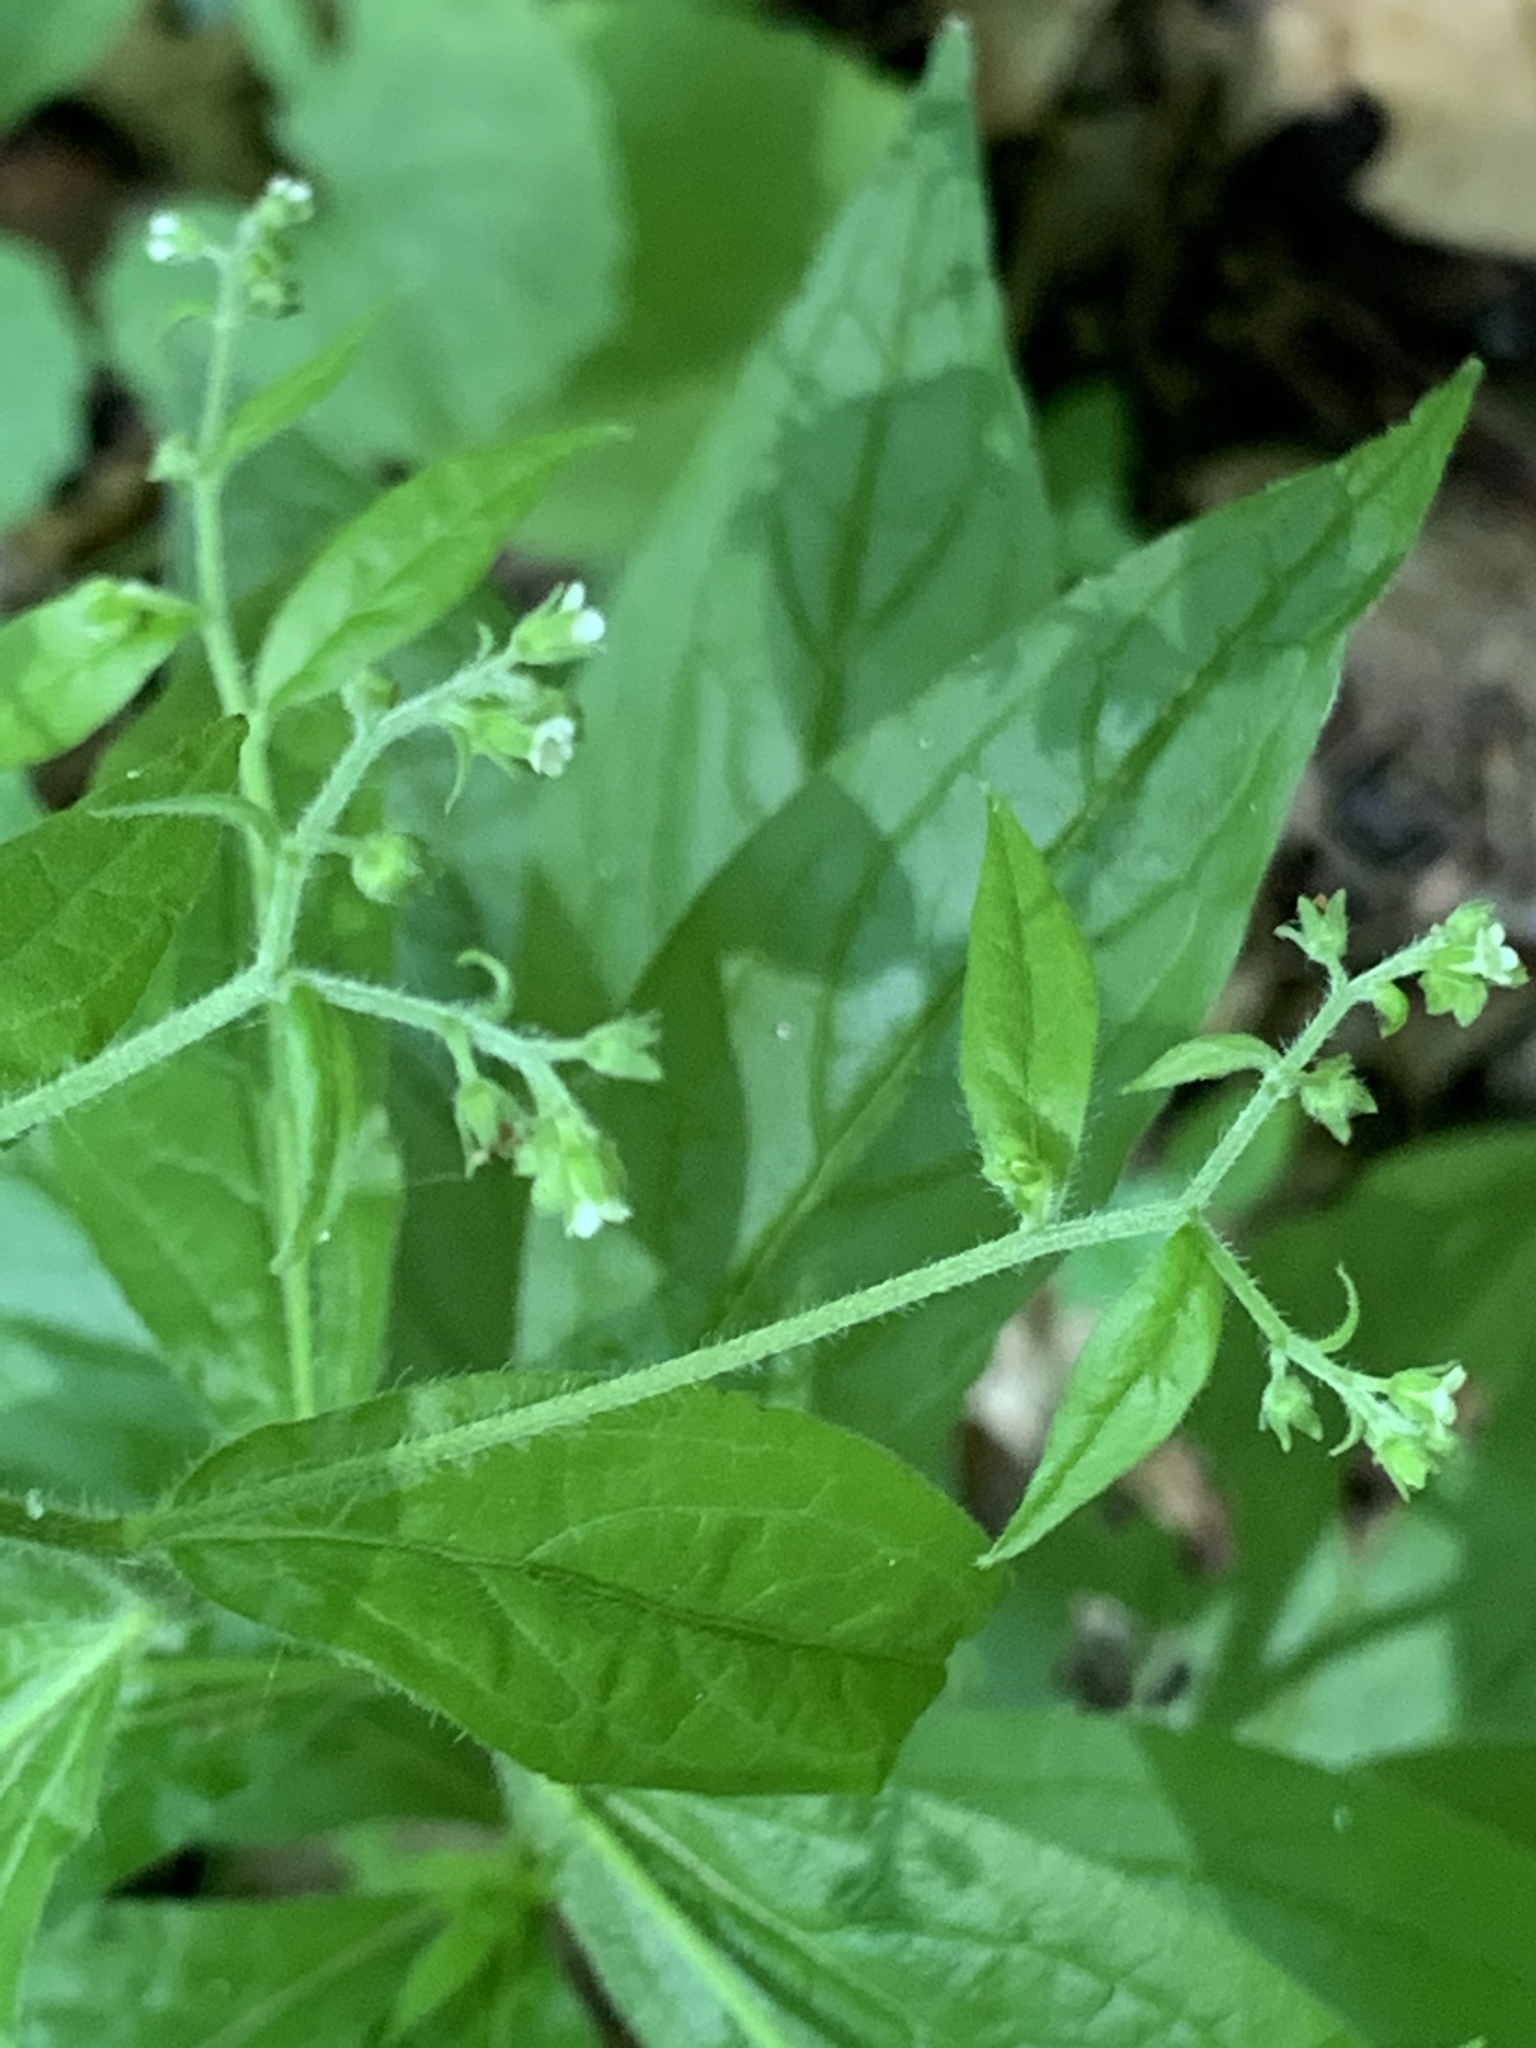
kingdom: Plantae
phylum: Tracheophyta
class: Magnoliopsida
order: Boraginales
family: Boraginaceae
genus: Hackelia
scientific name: Hackelia virginiana
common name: Beggar's-lice
